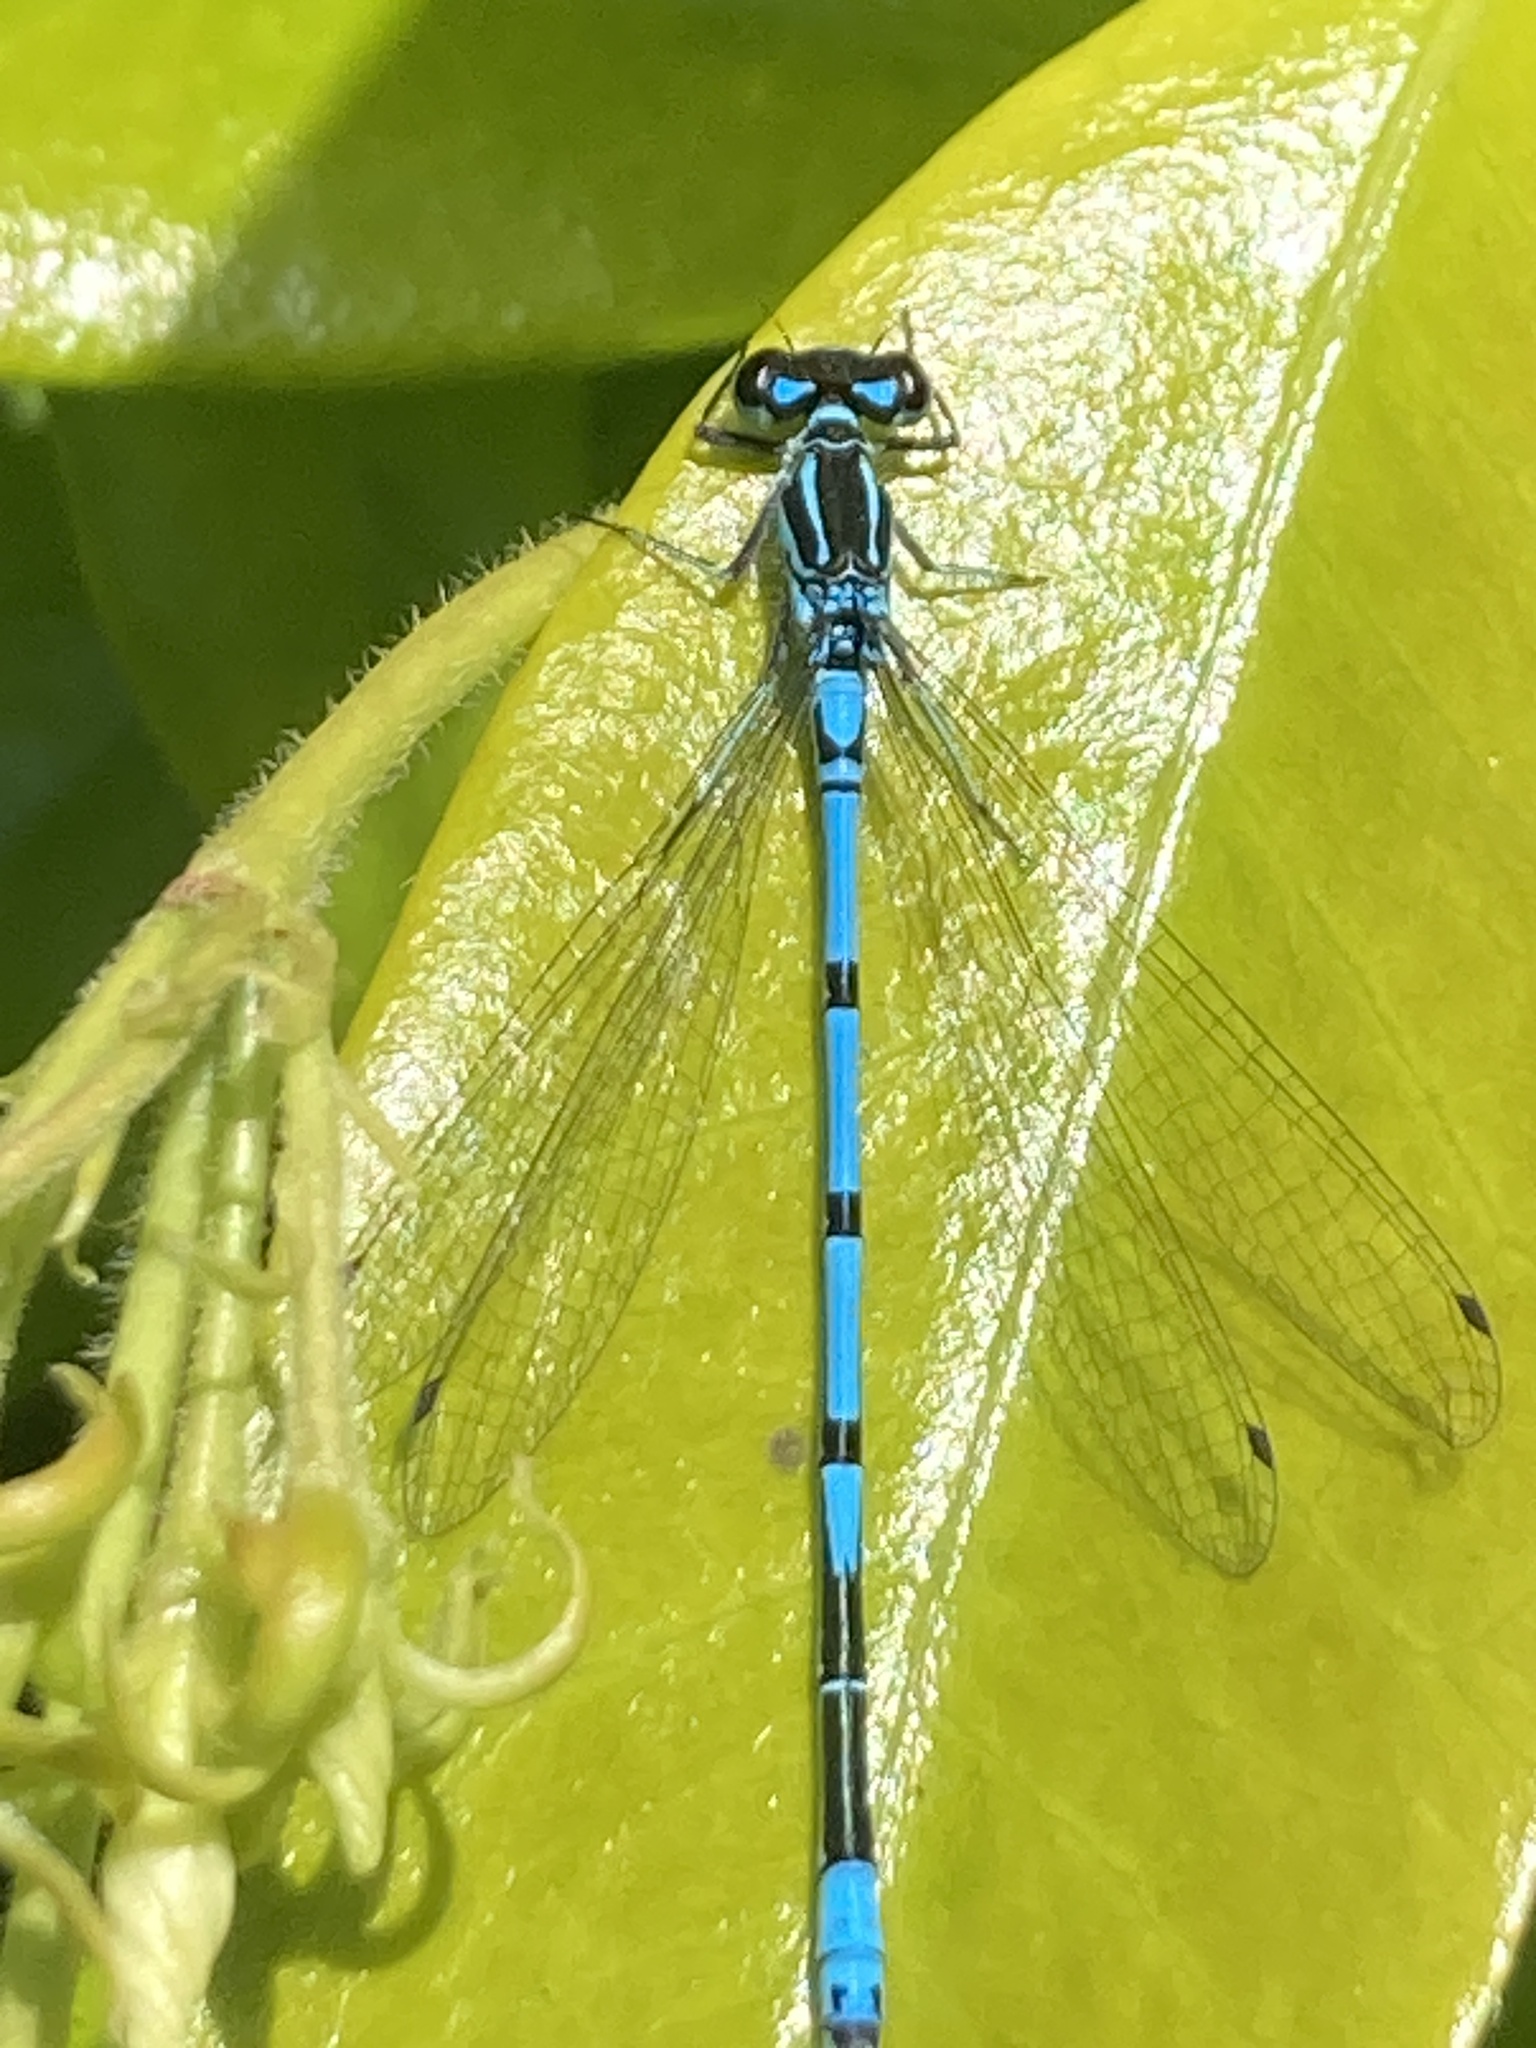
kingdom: Animalia
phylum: Arthropoda
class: Insecta
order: Odonata
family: Coenagrionidae
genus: Coenagrion
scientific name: Coenagrion puella
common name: Azure damselfly
